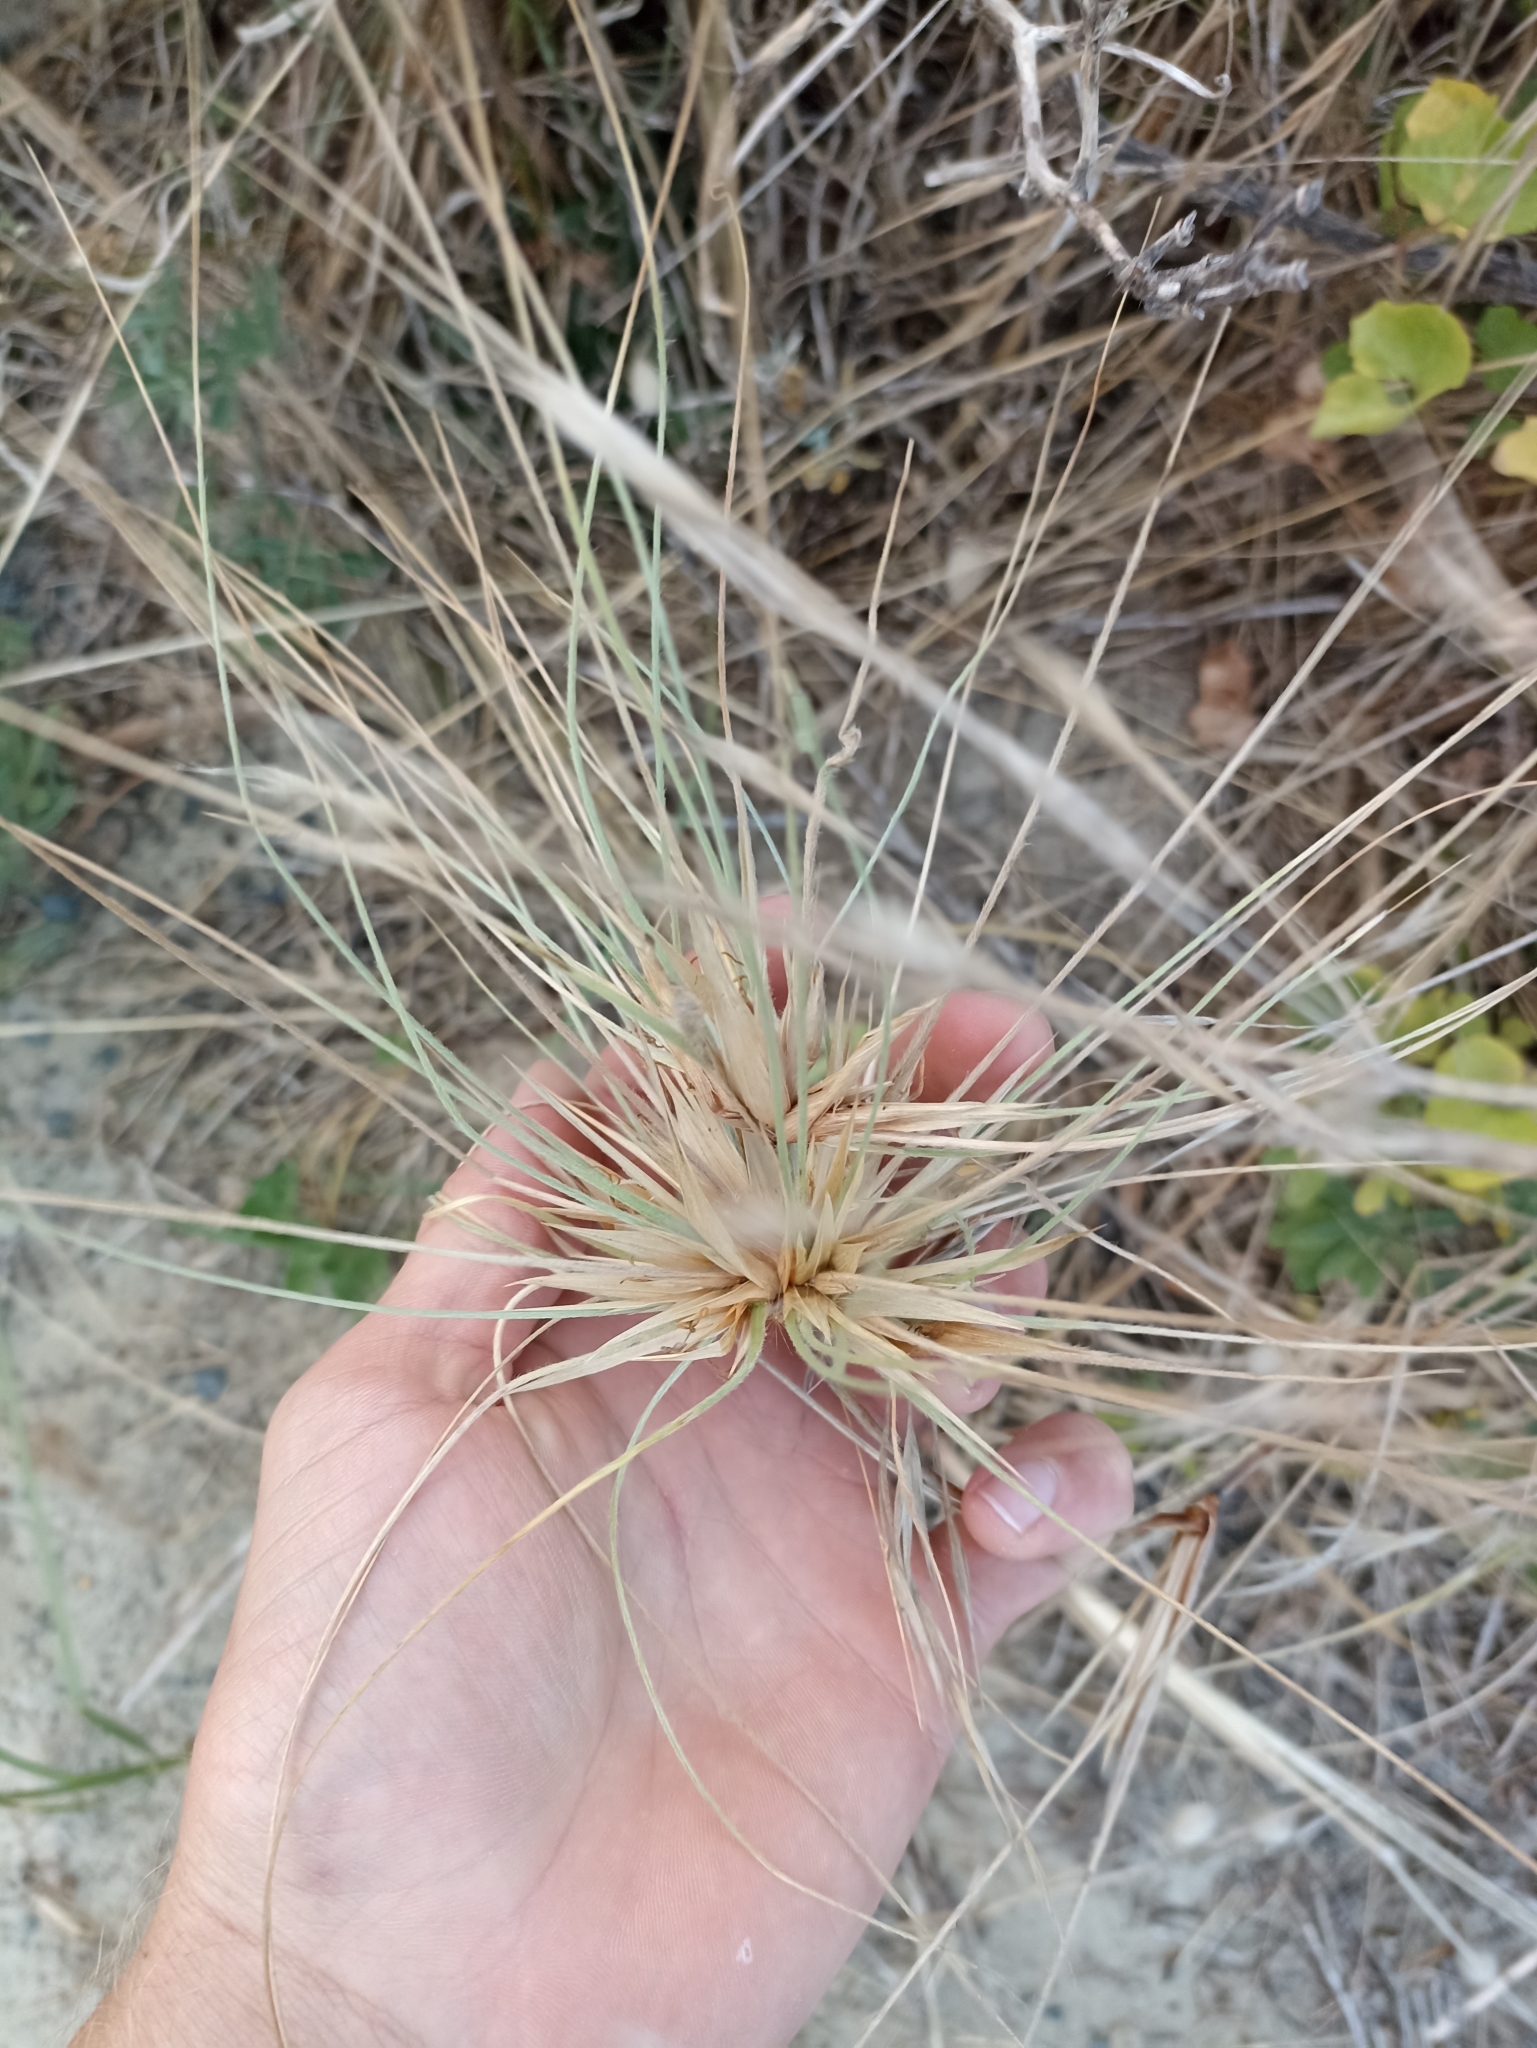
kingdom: Plantae
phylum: Tracheophyta
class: Liliopsida
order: Poales
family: Poaceae
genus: Spinifex
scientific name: Spinifex sericeus
